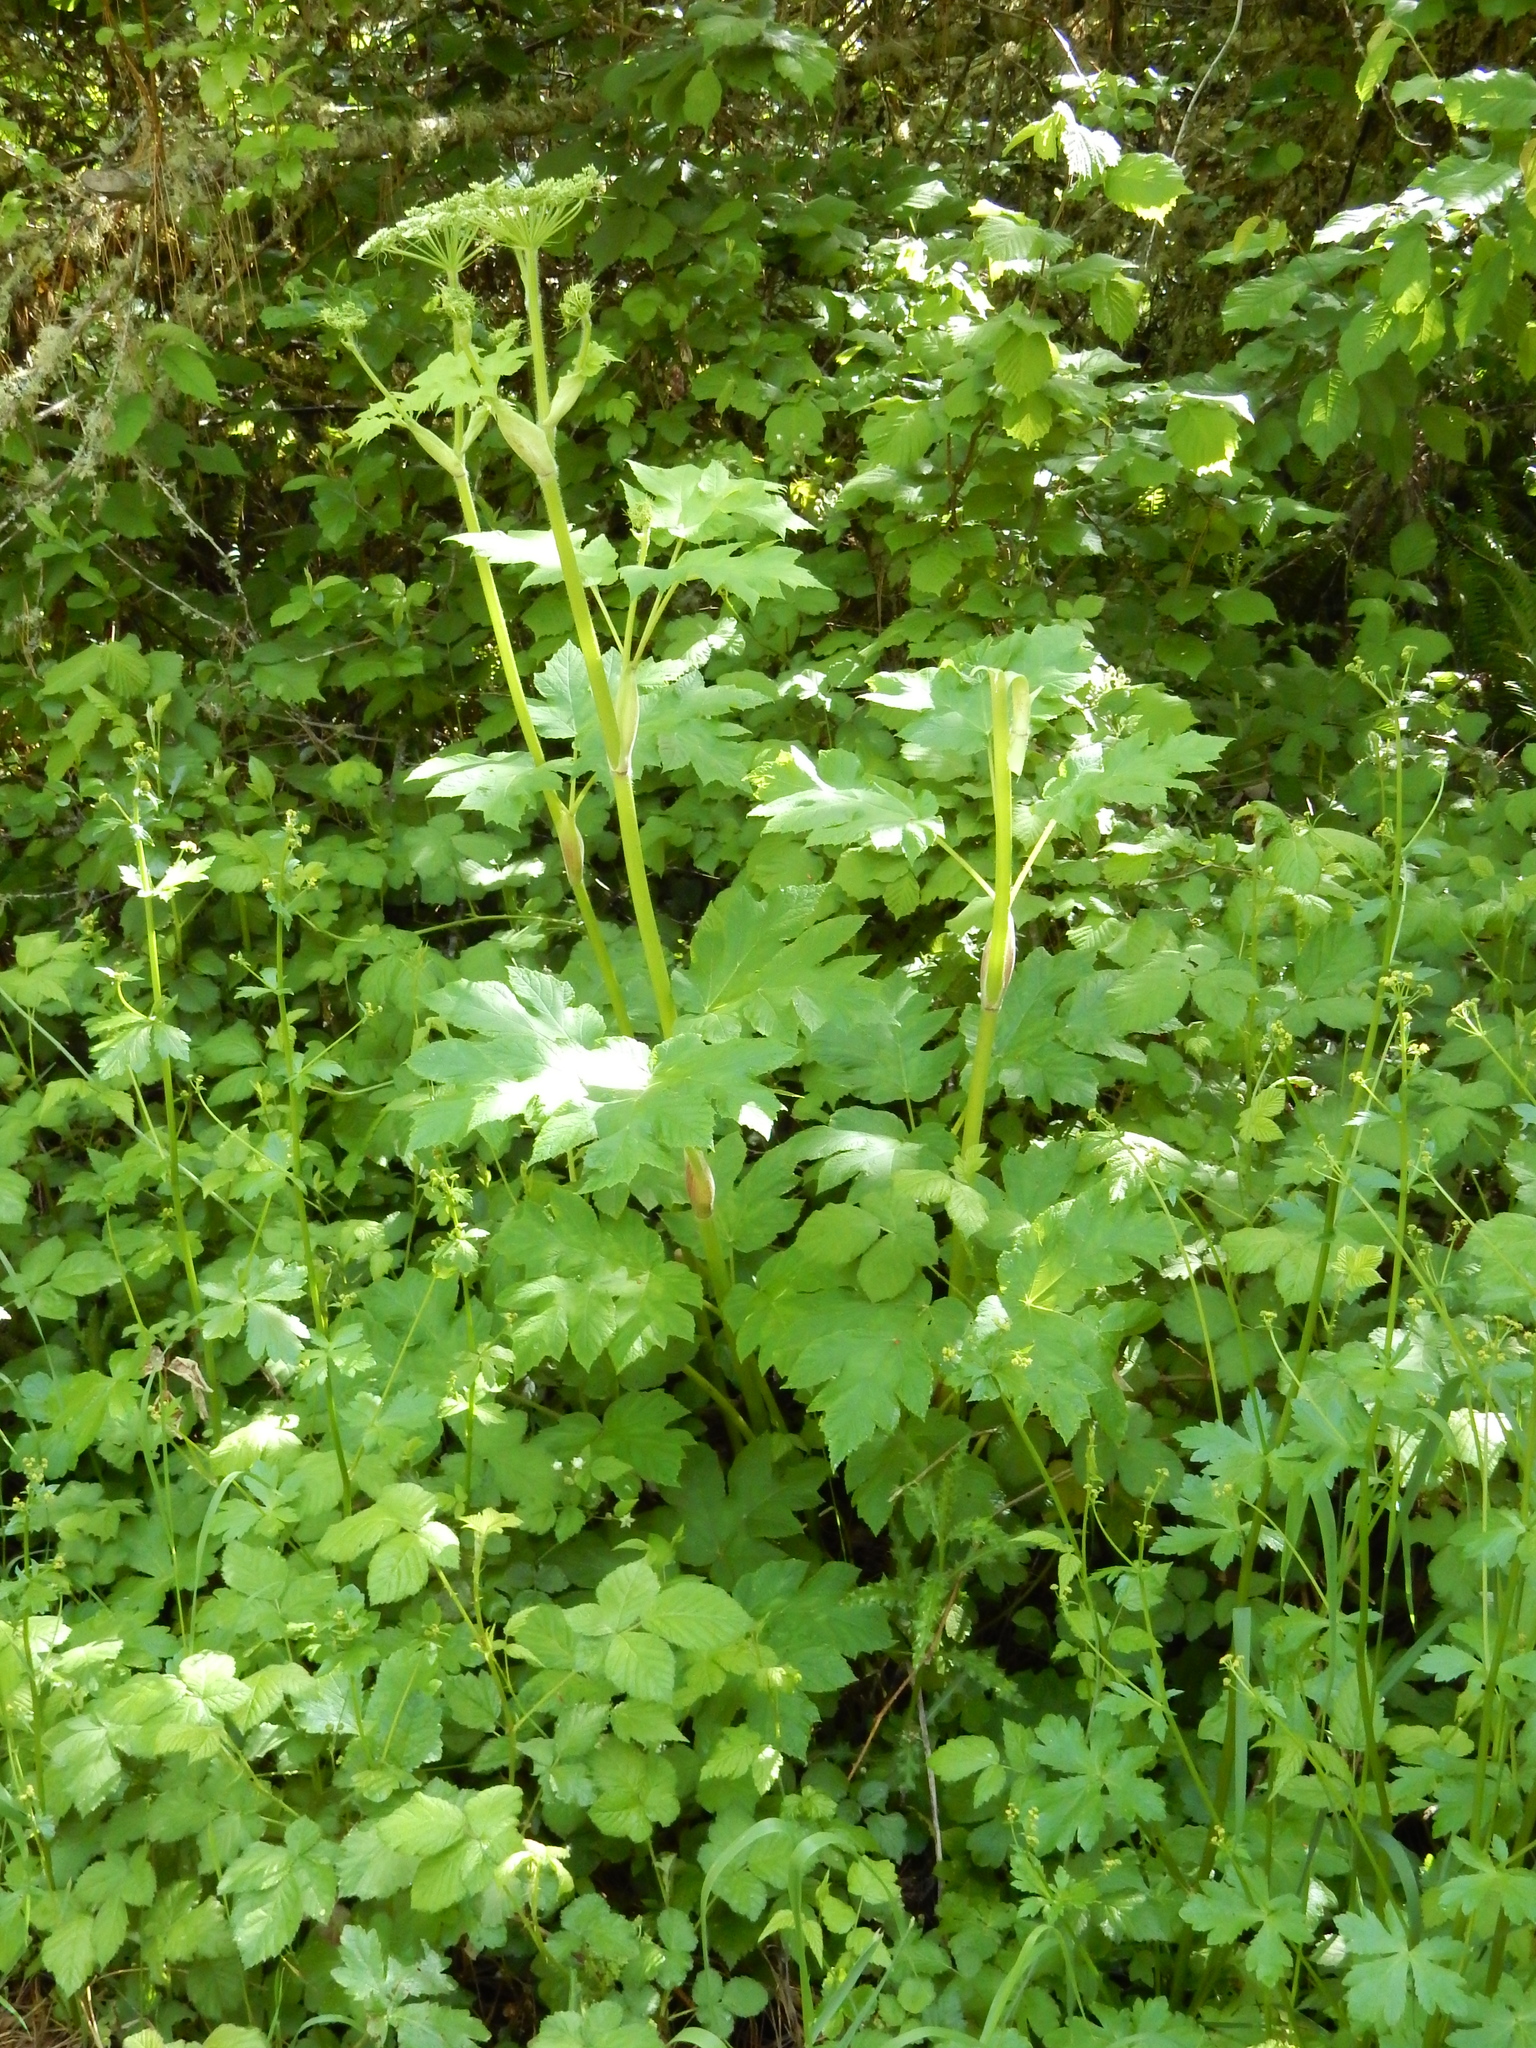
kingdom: Plantae
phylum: Tracheophyta
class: Magnoliopsida
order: Apiales
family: Apiaceae
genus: Heracleum
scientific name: Heracleum maximum
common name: American cow parsnip
